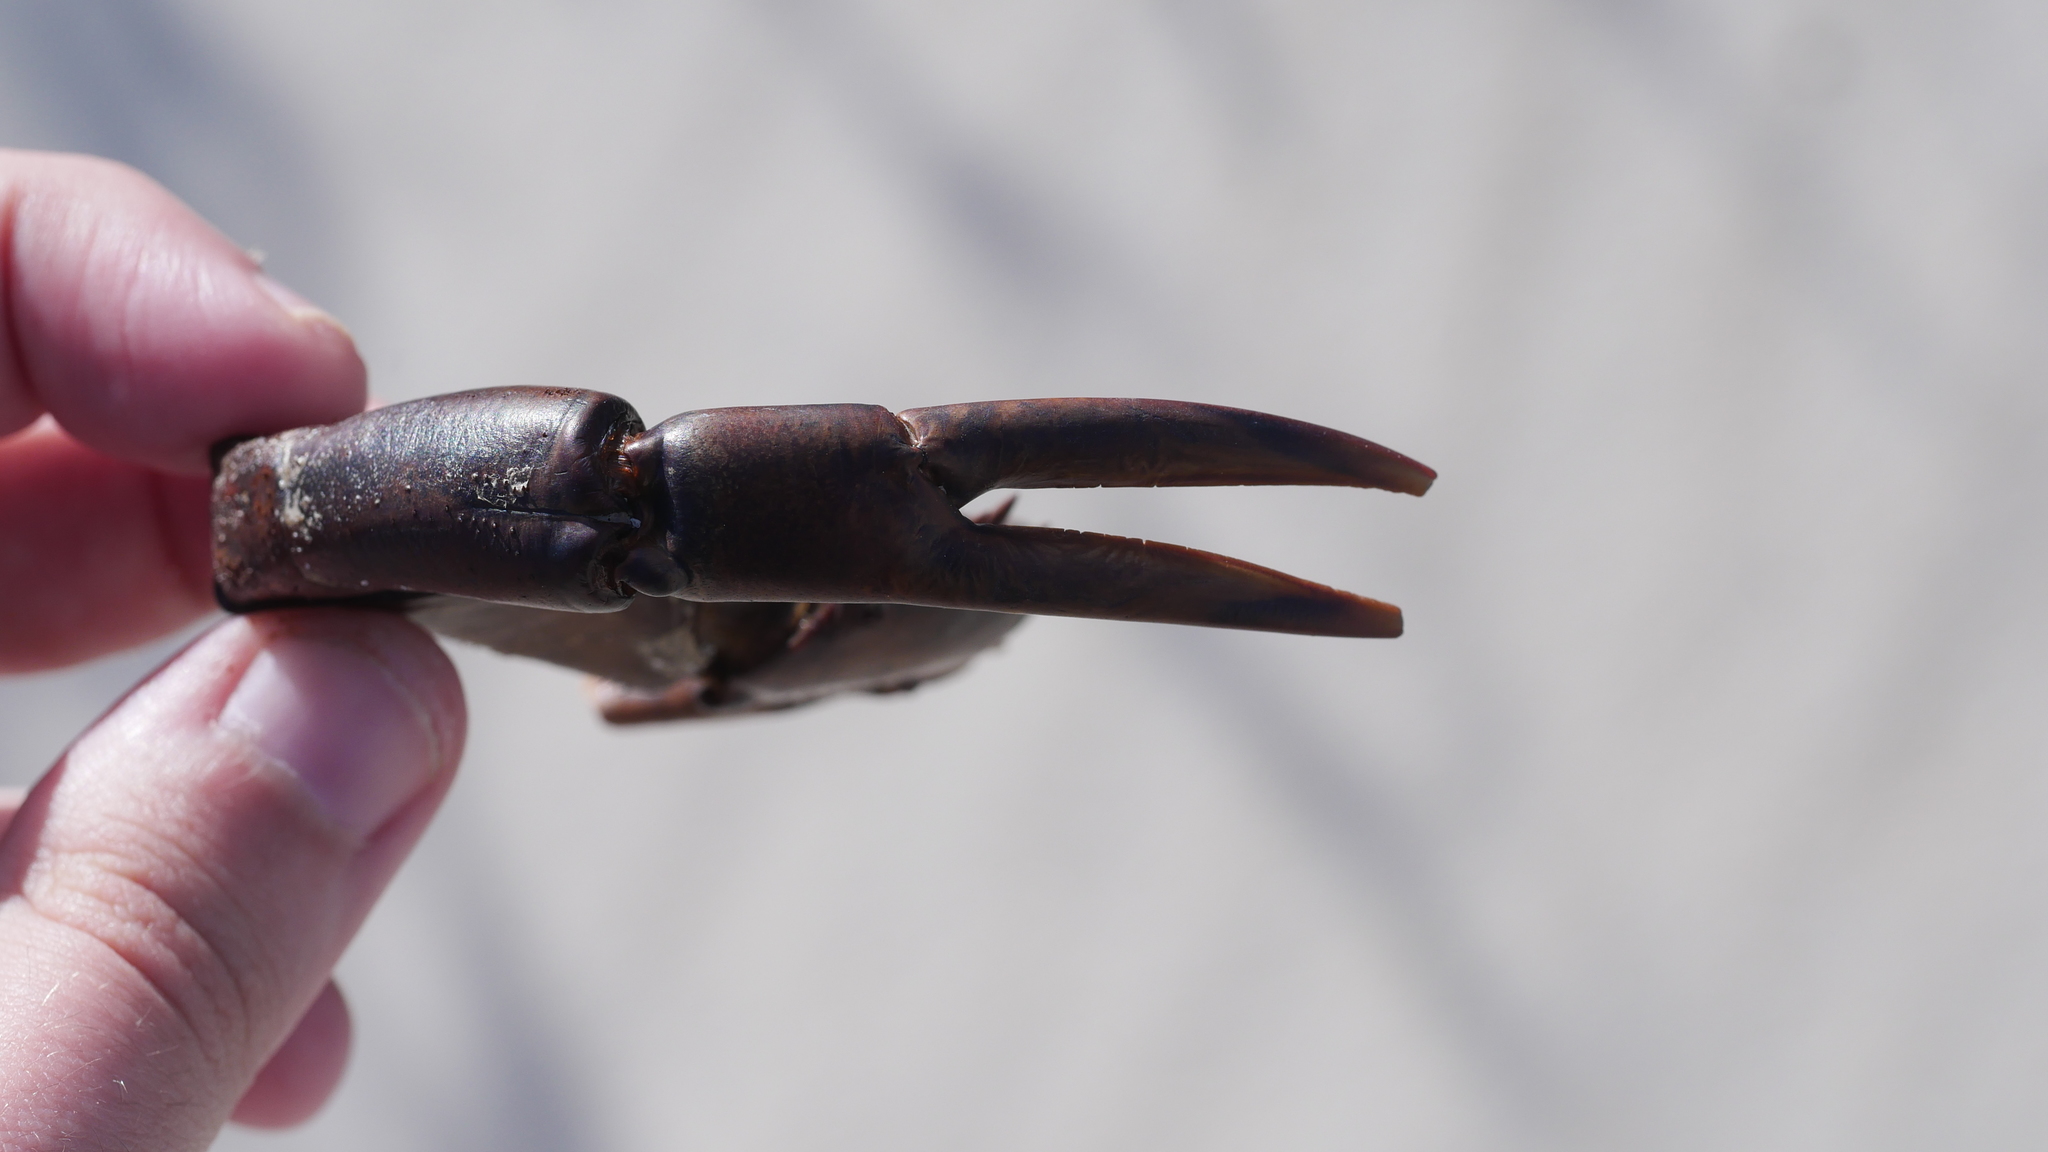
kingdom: Animalia
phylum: Arthropoda
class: Merostomata
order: Xiphosurida
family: Limulidae
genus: Limulus
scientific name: Limulus polyphemus
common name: Horseshoe crab
